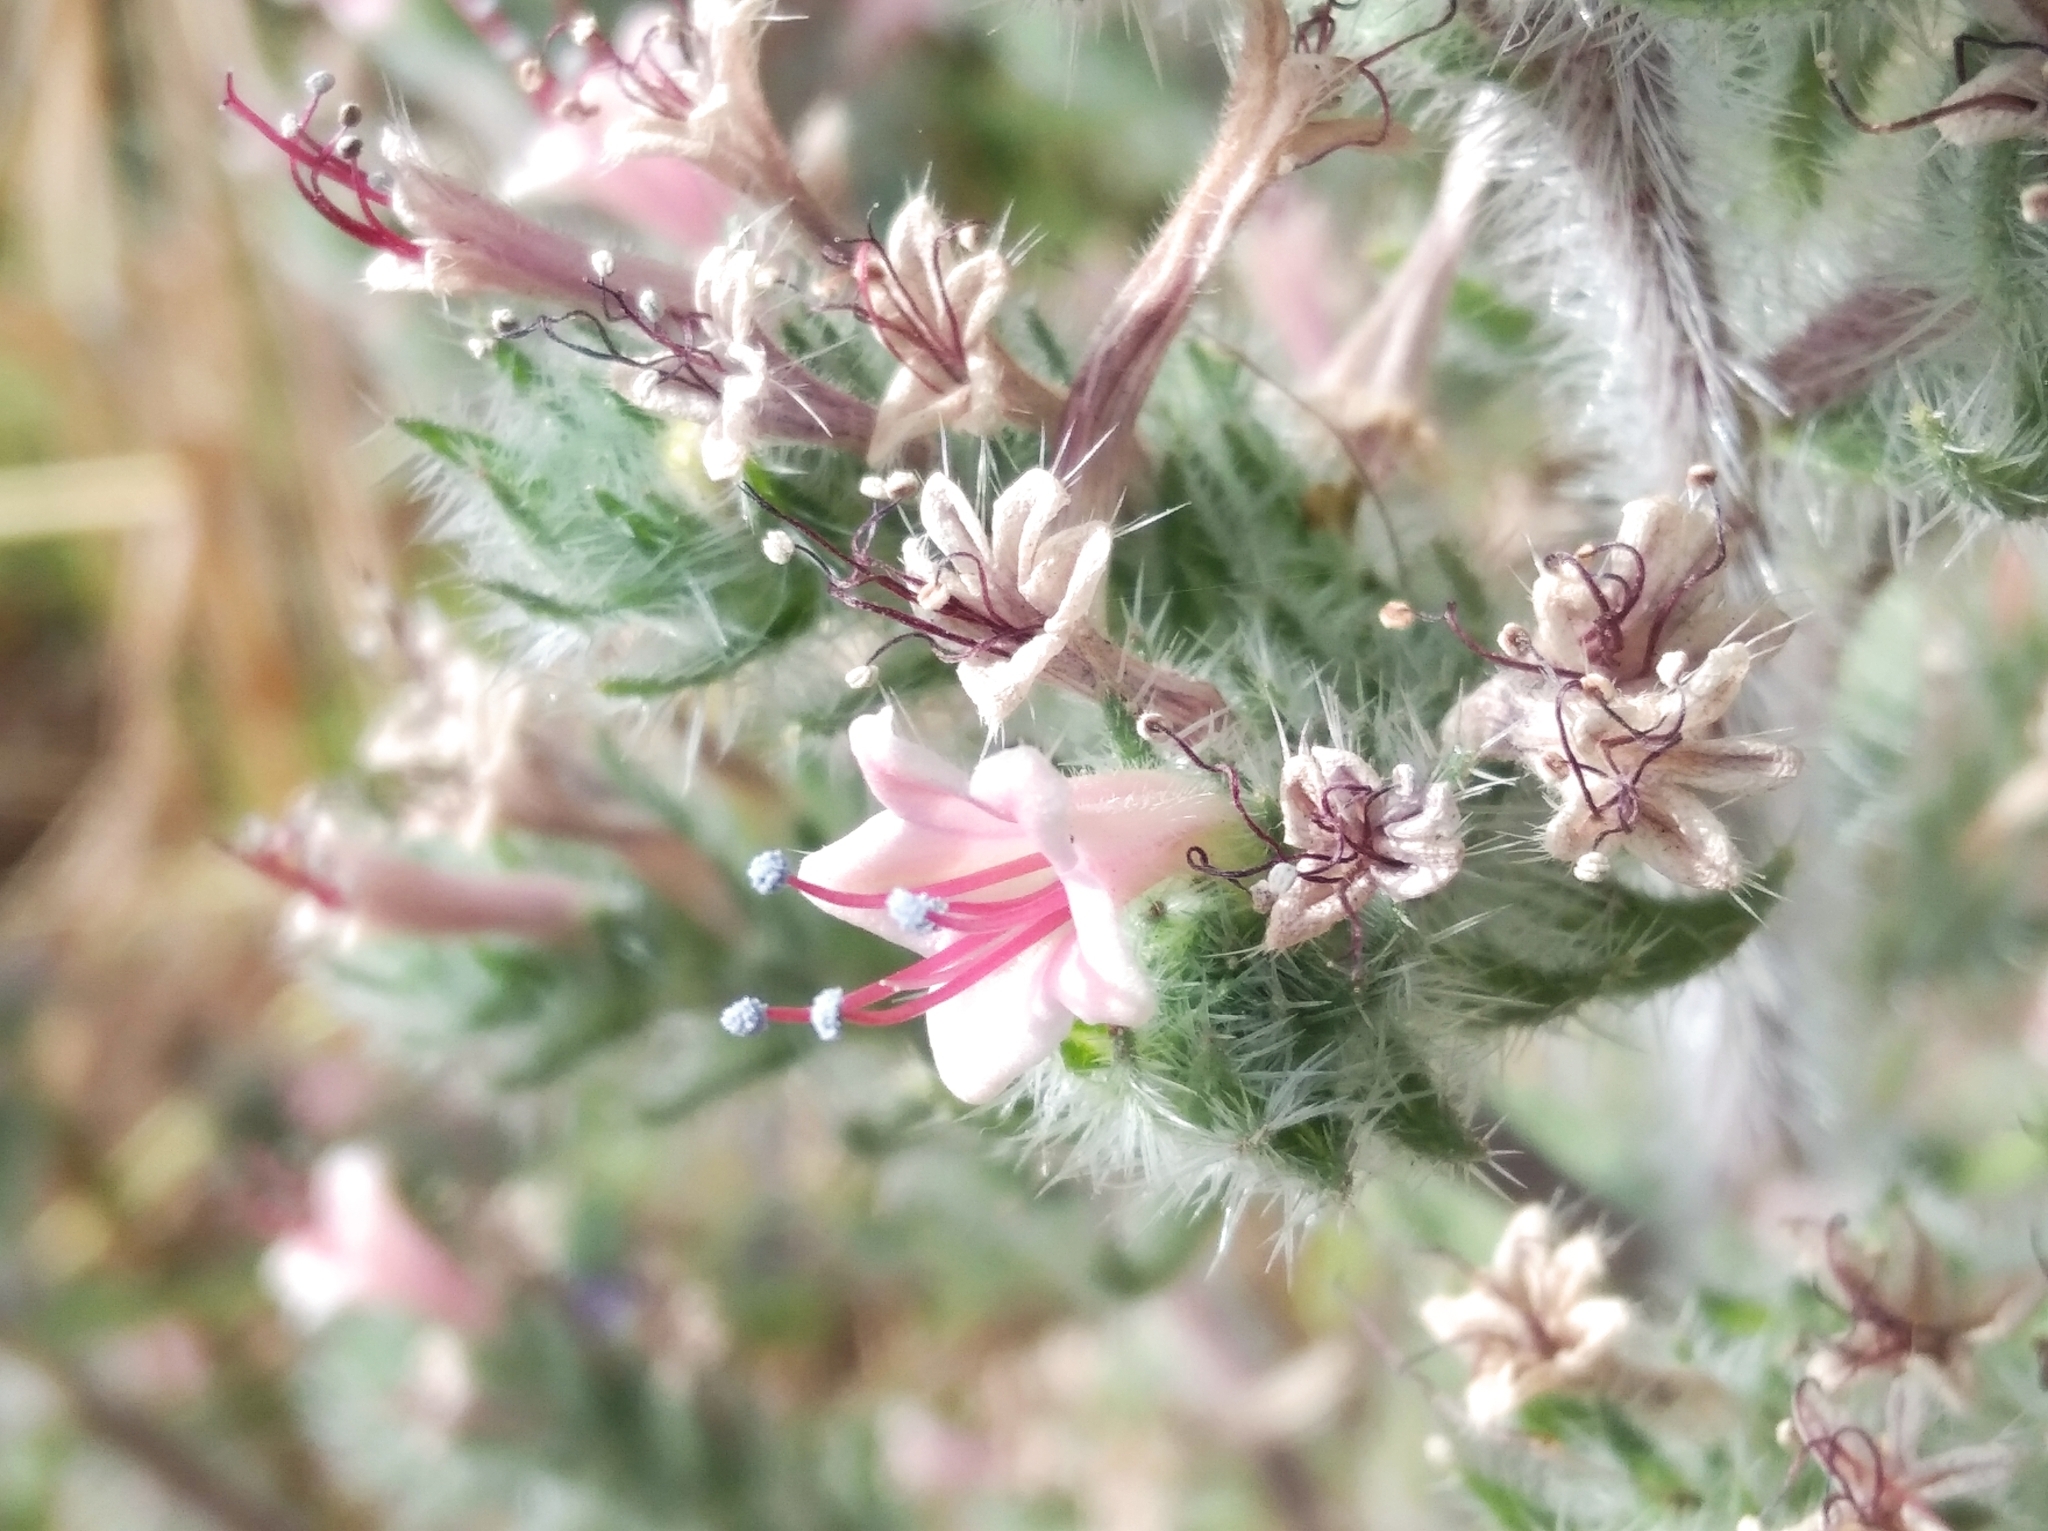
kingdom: Plantae
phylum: Tracheophyta
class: Magnoliopsida
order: Boraginales
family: Boraginaceae
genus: Echium
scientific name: Echium italicum
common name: Italian viper's bugloss
